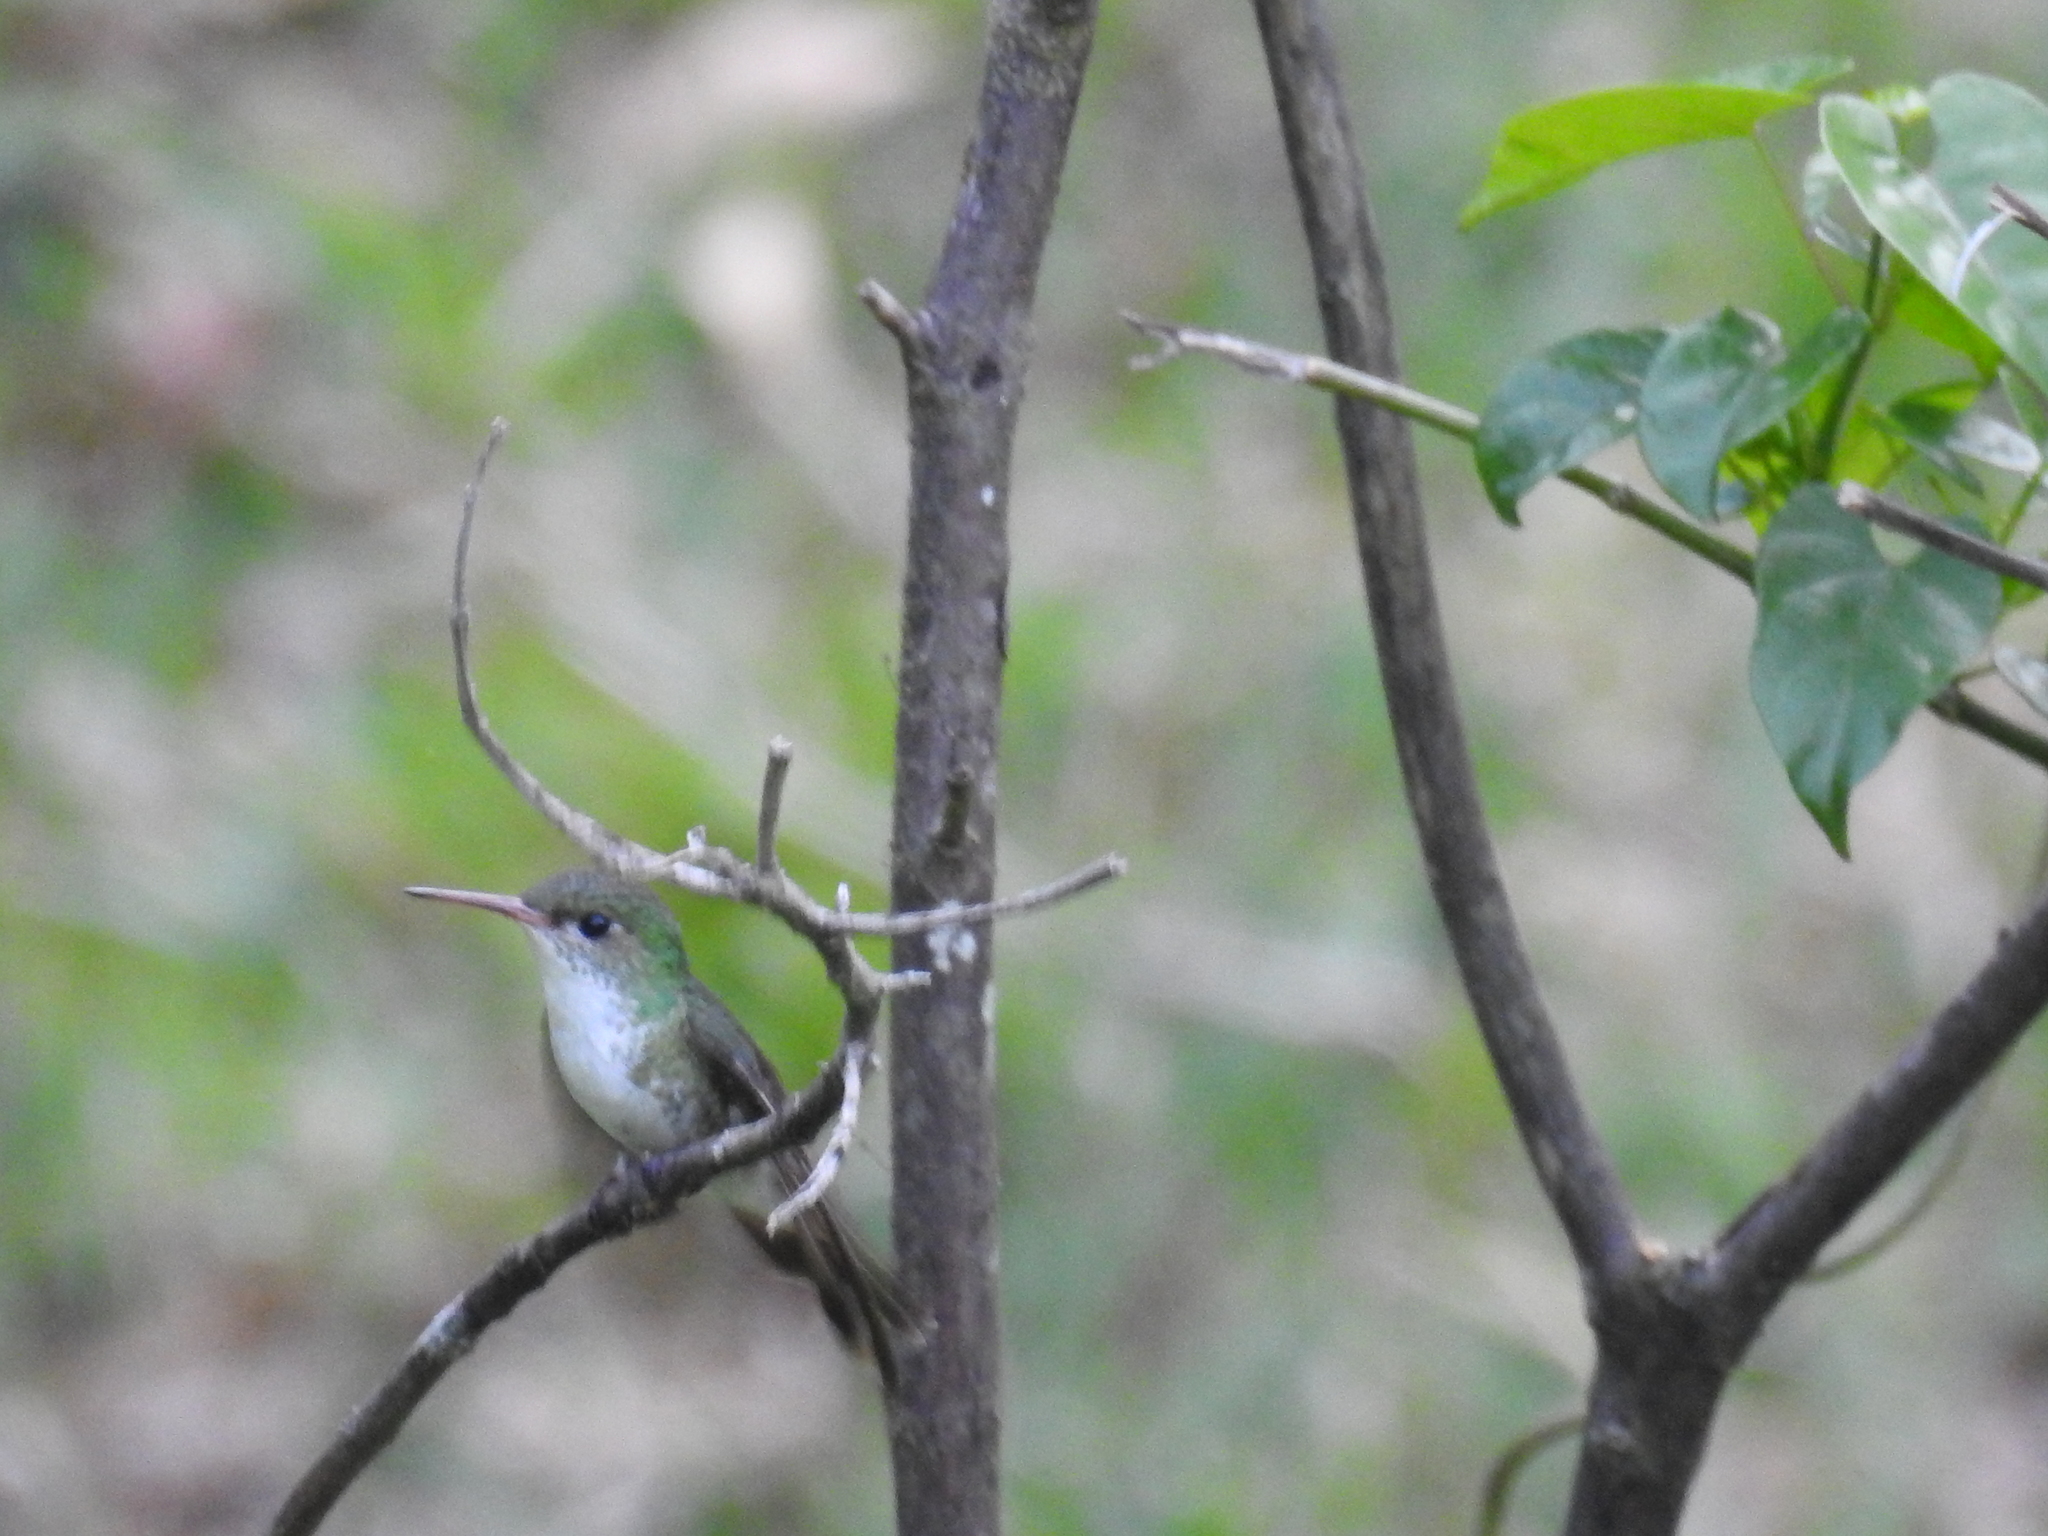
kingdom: Animalia
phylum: Chordata
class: Aves
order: Apodiformes
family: Trochilidae
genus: Chlorestes
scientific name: Chlorestes candida
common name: White-bellied emerald
